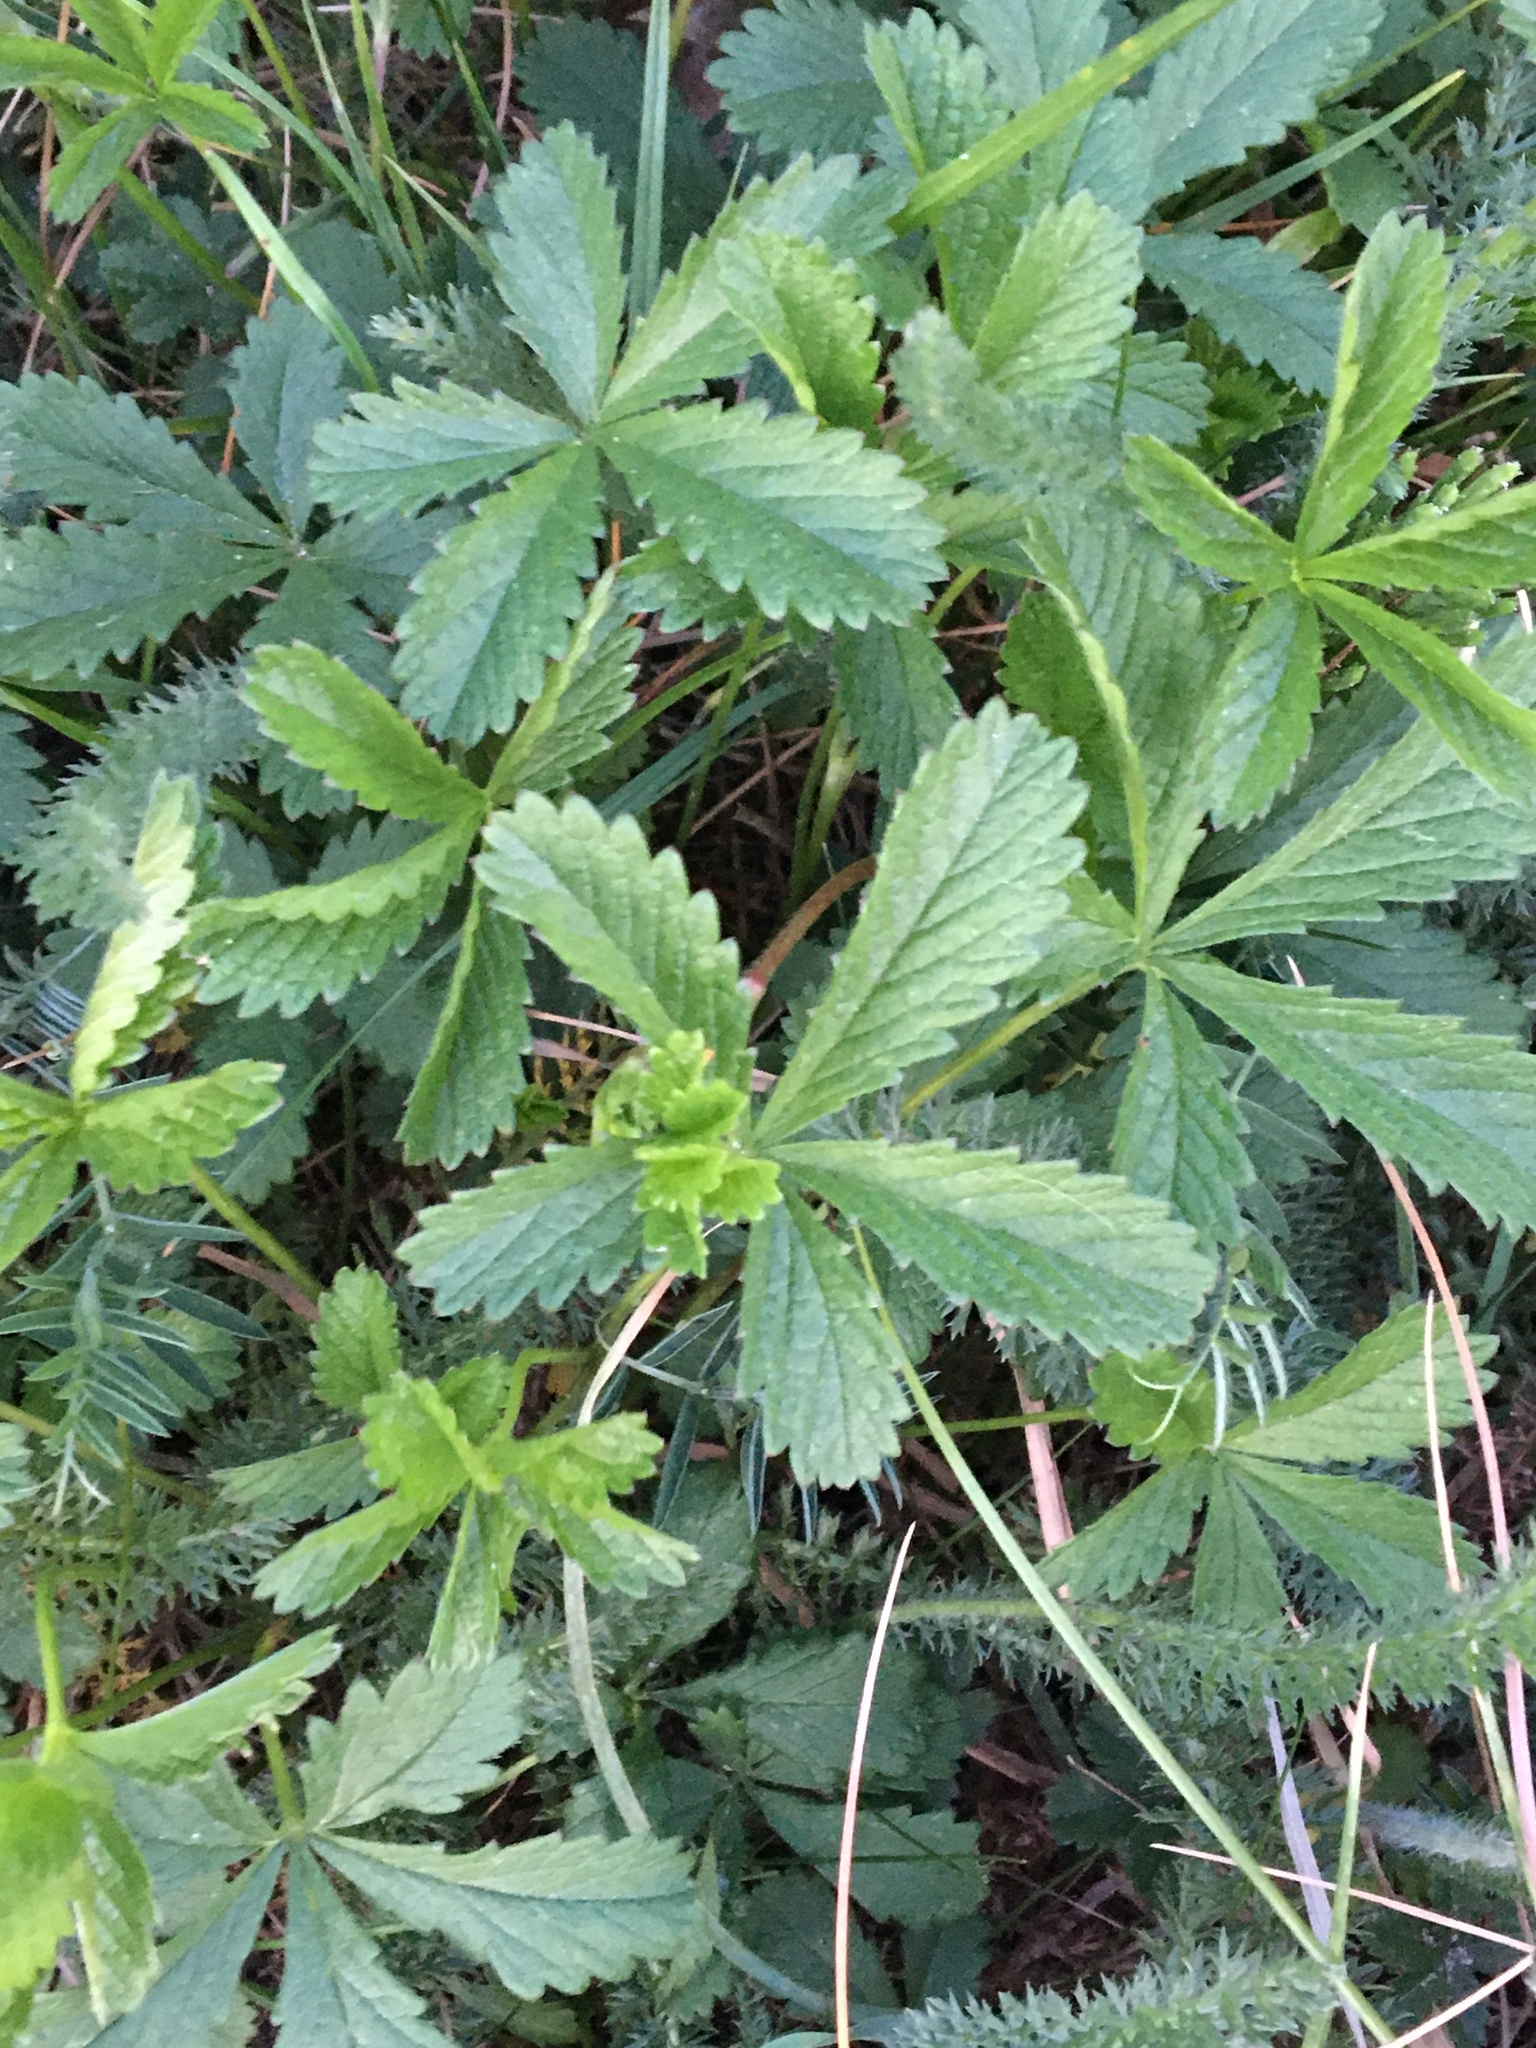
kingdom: Plantae
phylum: Tracheophyta
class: Magnoliopsida
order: Rosales
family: Rosaceae
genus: Potentilla
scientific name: Potentilla reptans
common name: Creeping cinquefoil
